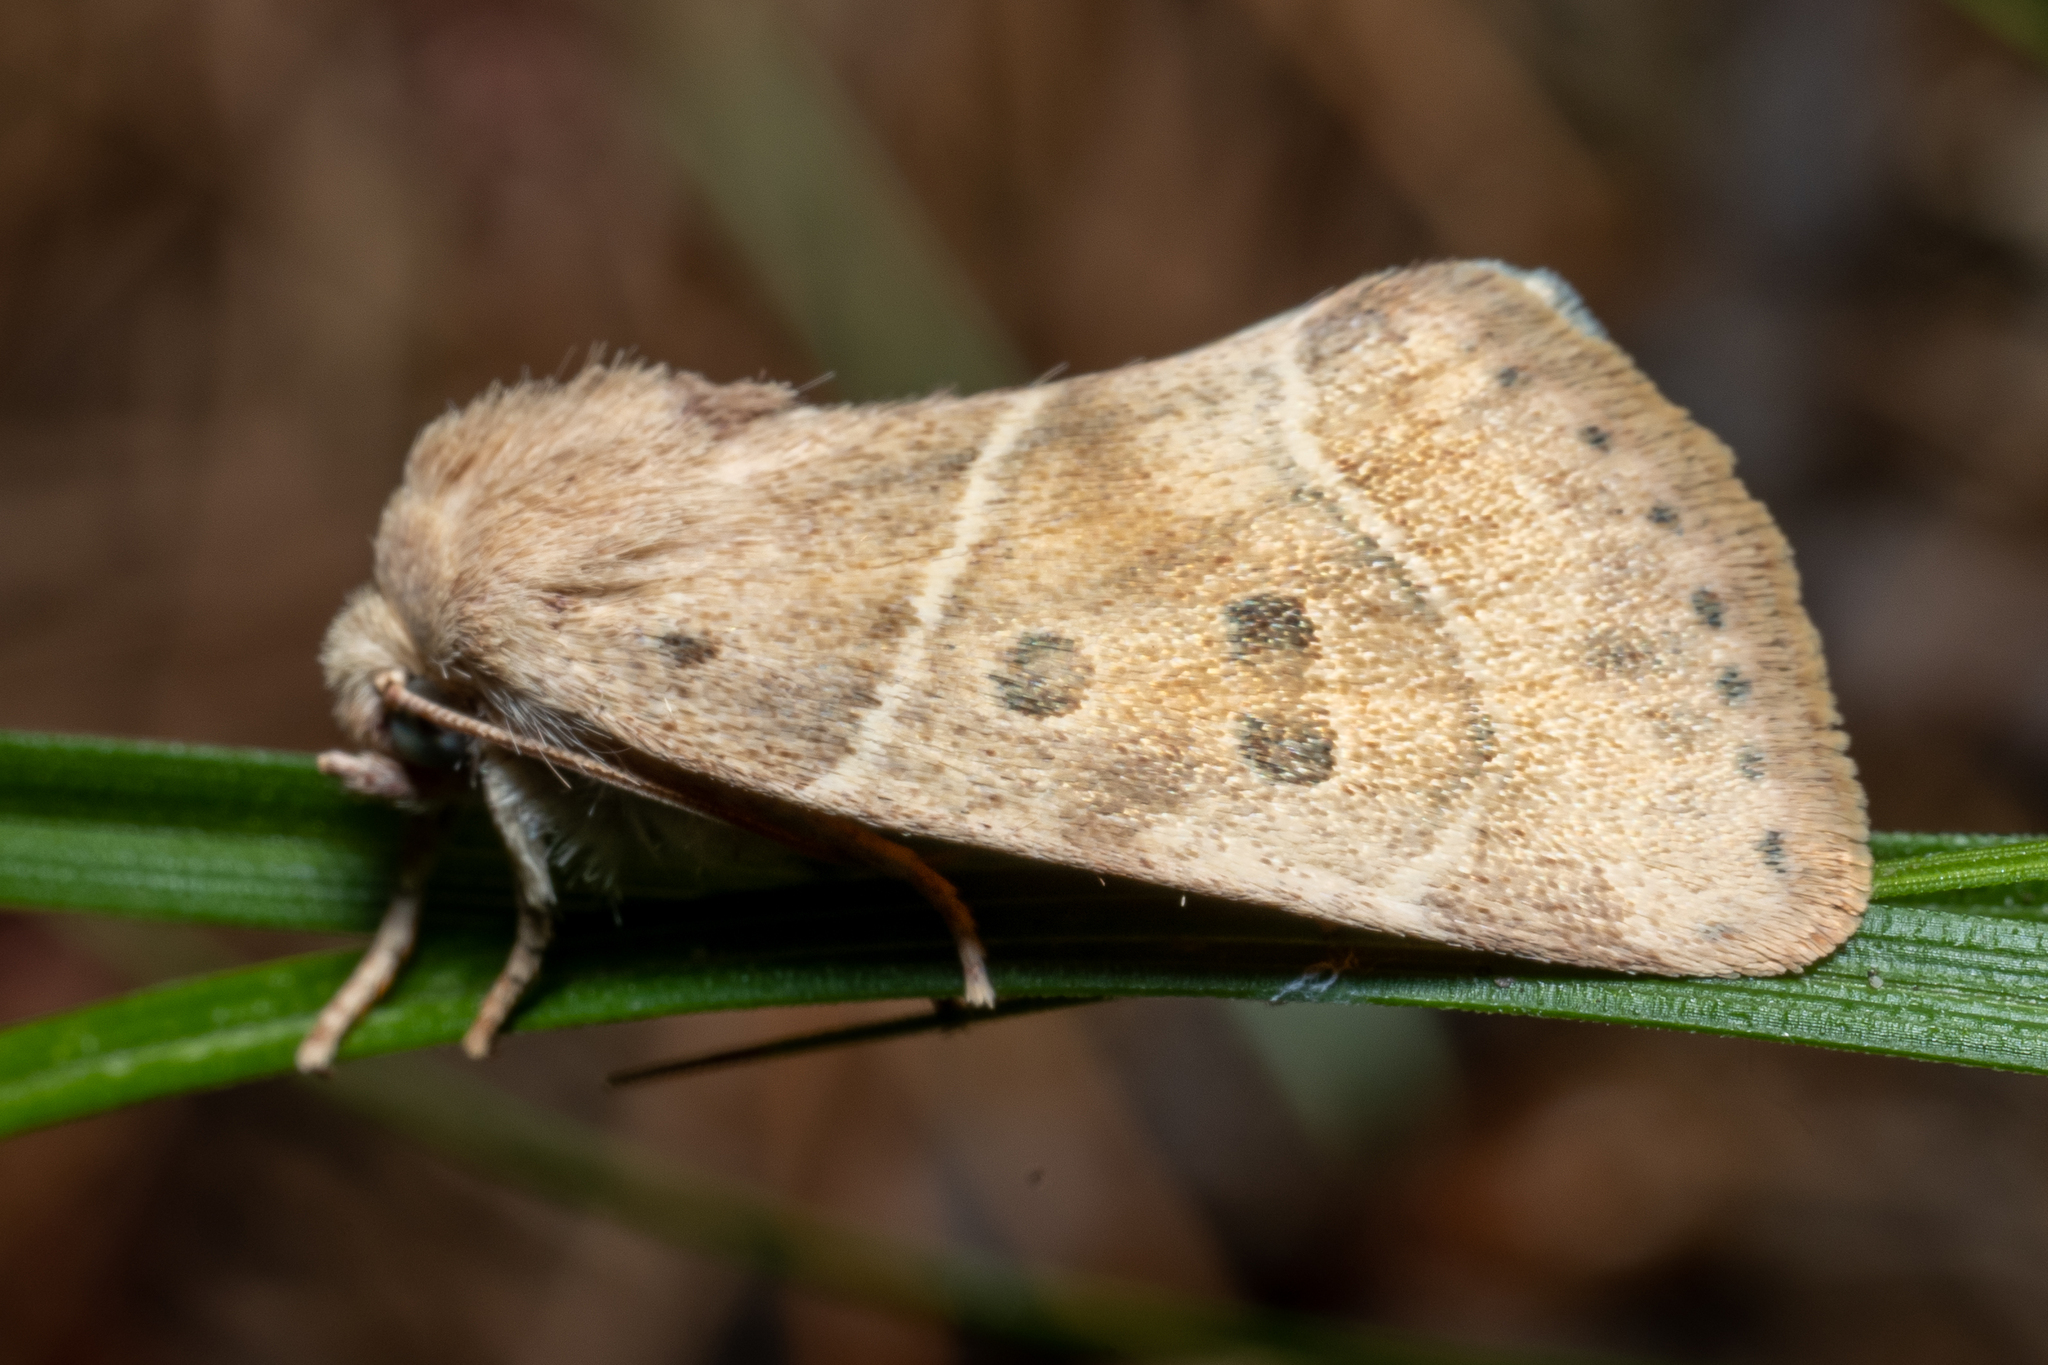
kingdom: Animalia
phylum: Arthropoda
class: Insecta
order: Lepidoptera
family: Noctuidae
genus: Cosmia
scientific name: Cosmia calami
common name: American dun-bar moth
